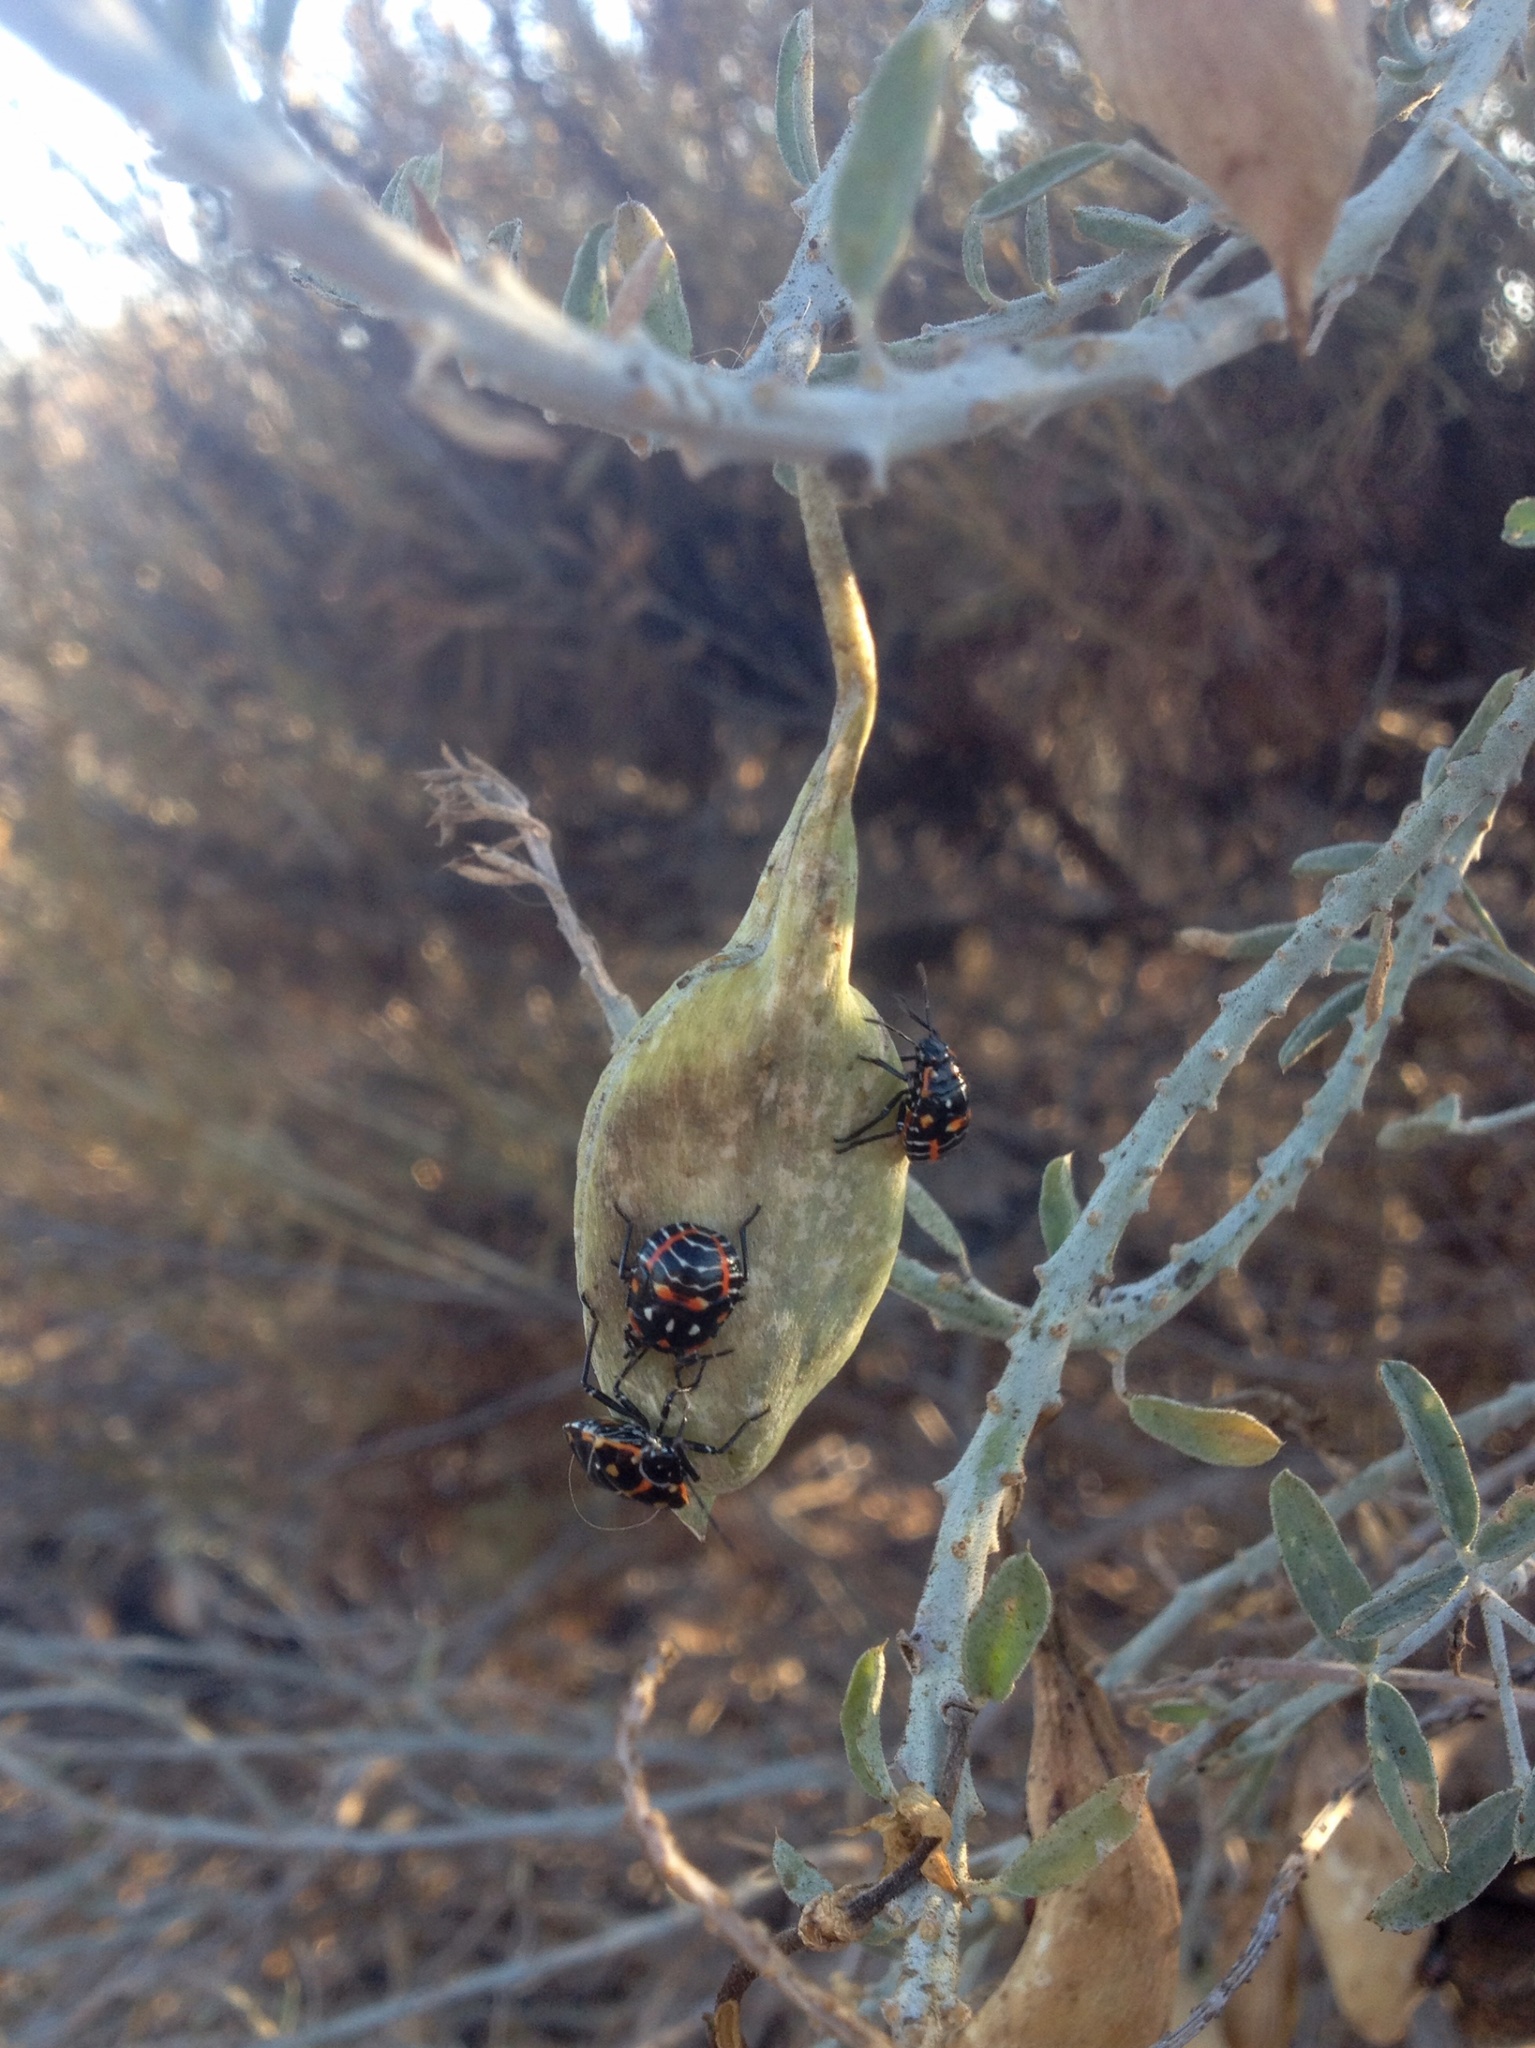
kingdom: Animalia
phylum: Arthropoda
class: Insecta
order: Hemiptera
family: Pentatomidae
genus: Murgantia
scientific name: Murgantia histrionica
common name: Harlequin bug
